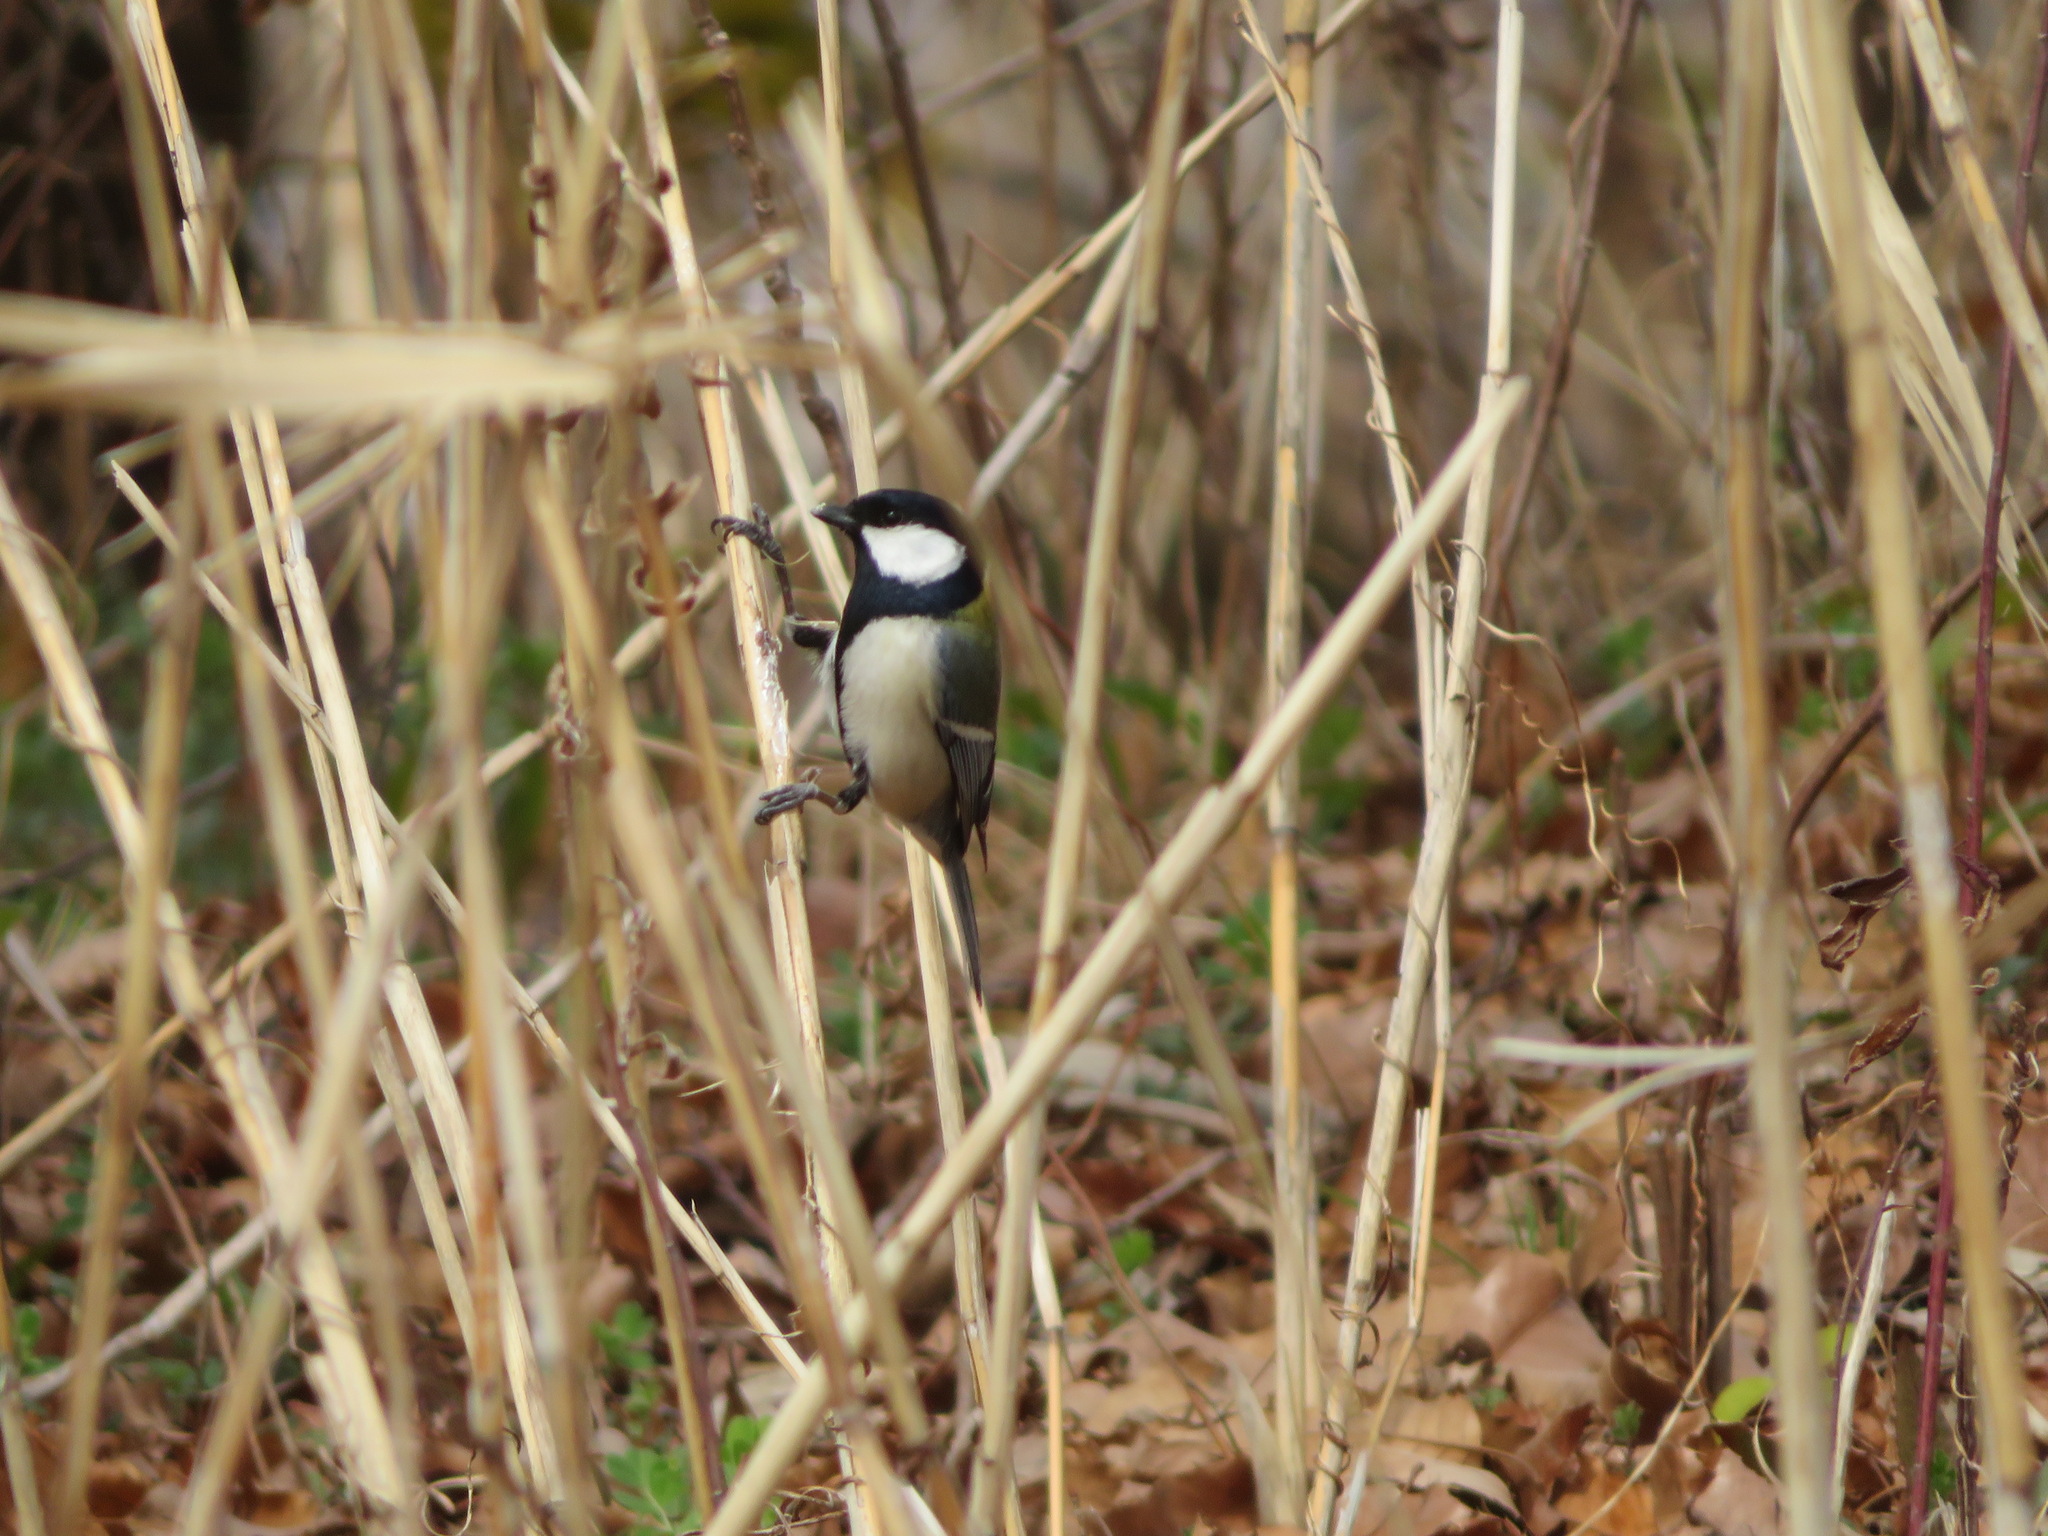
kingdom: Animalia
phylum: Chordata
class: Aves
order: Passeriformes
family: Paridae
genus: Parus
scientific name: Parus minor
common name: Japanese tit
